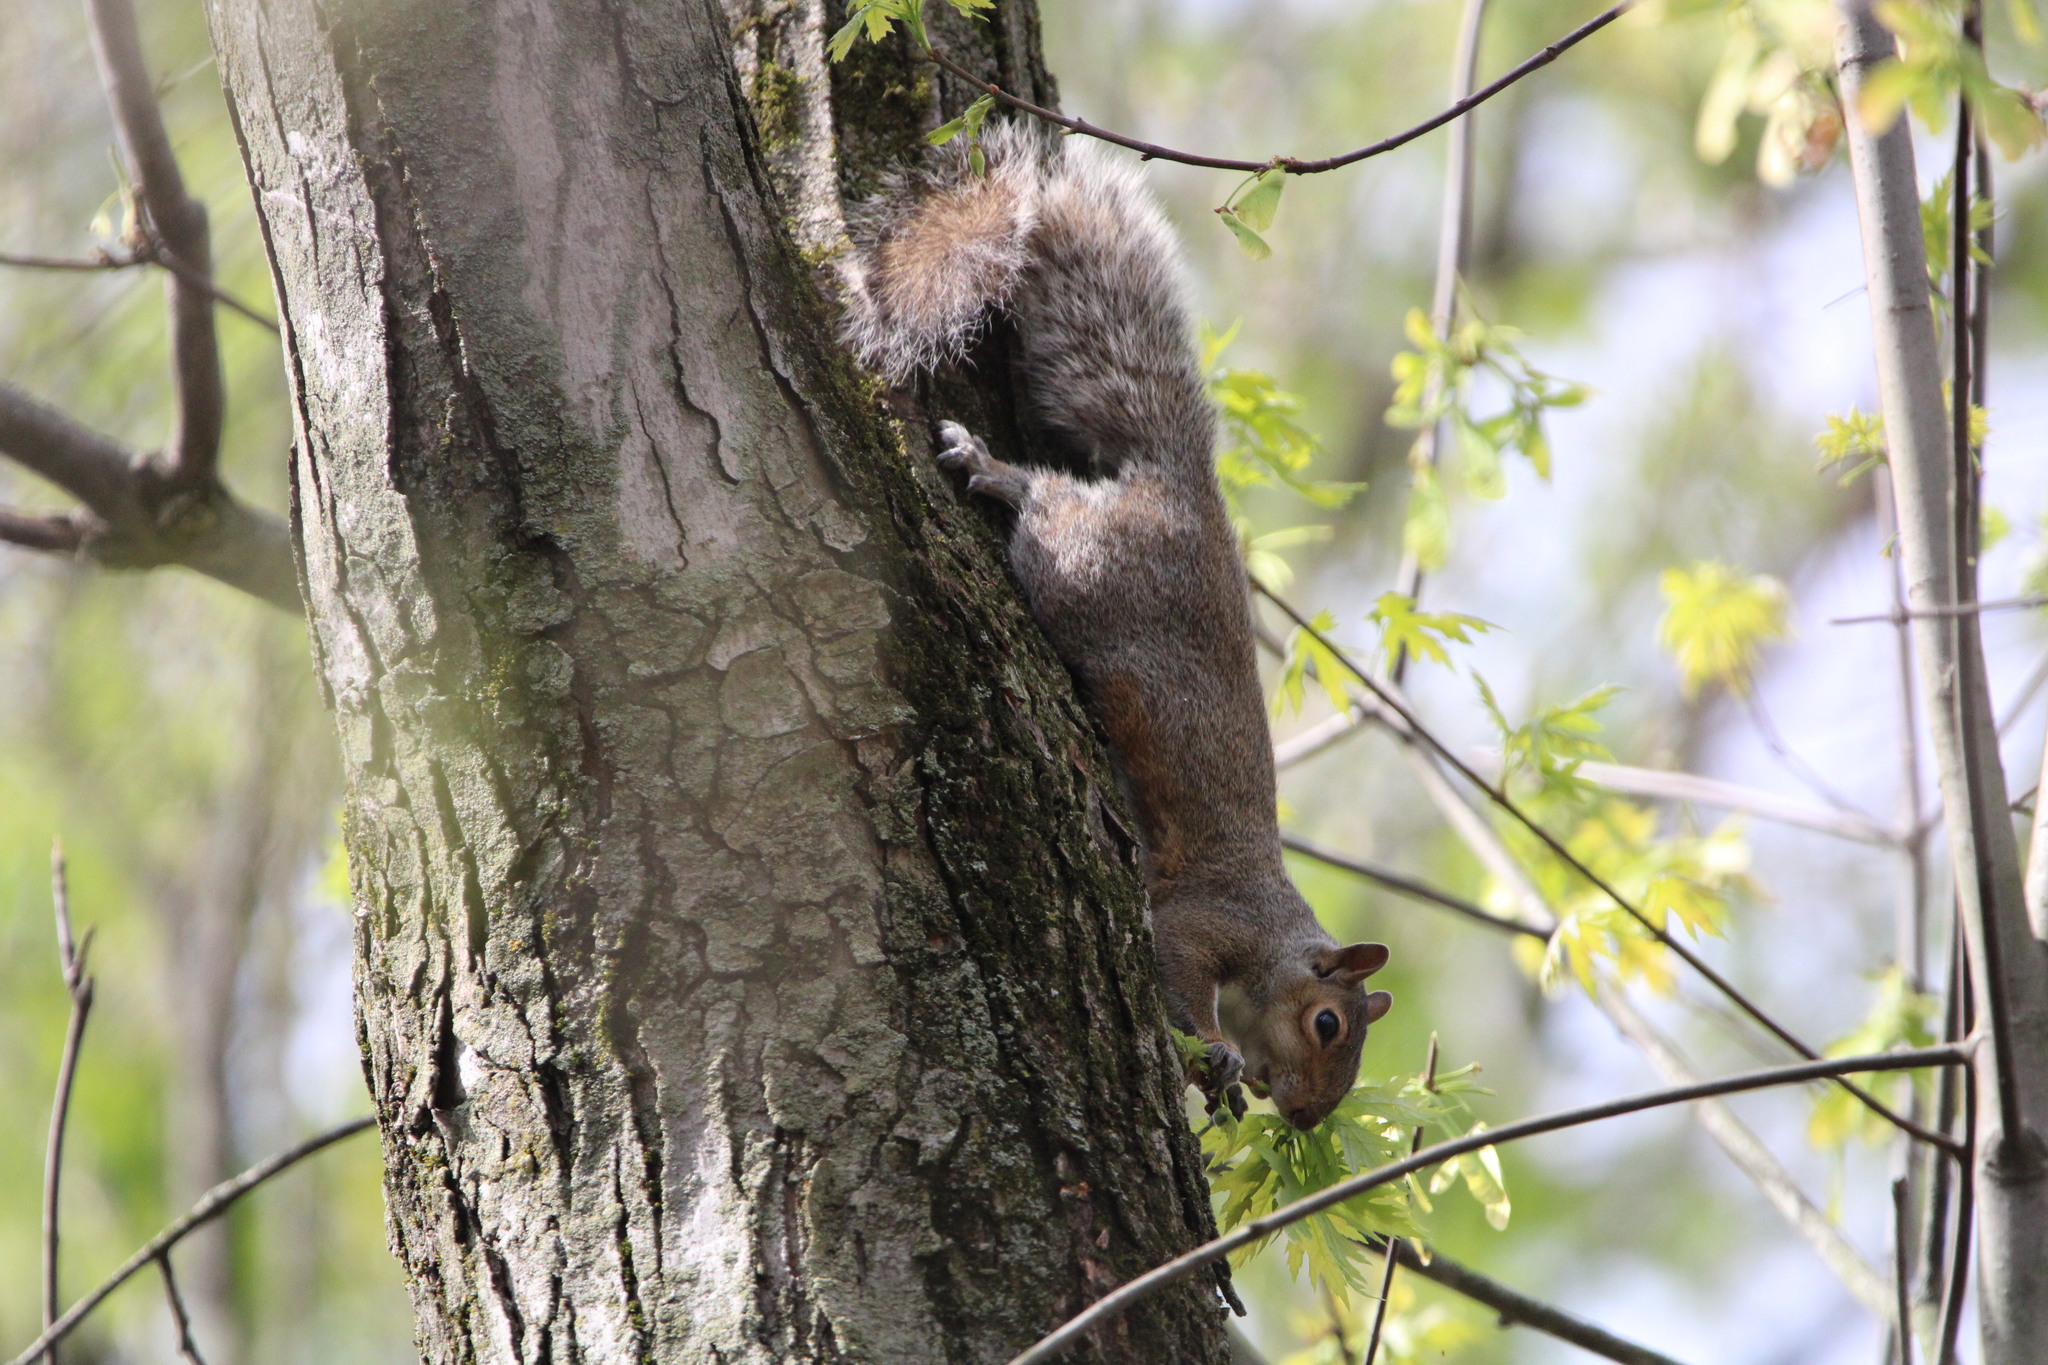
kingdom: Animalia
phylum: Chordata
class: Mammalia
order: Rodentia
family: Sciuridae
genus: Sciurus
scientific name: Sciurus carolinensis
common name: Eastern gray squirrel
